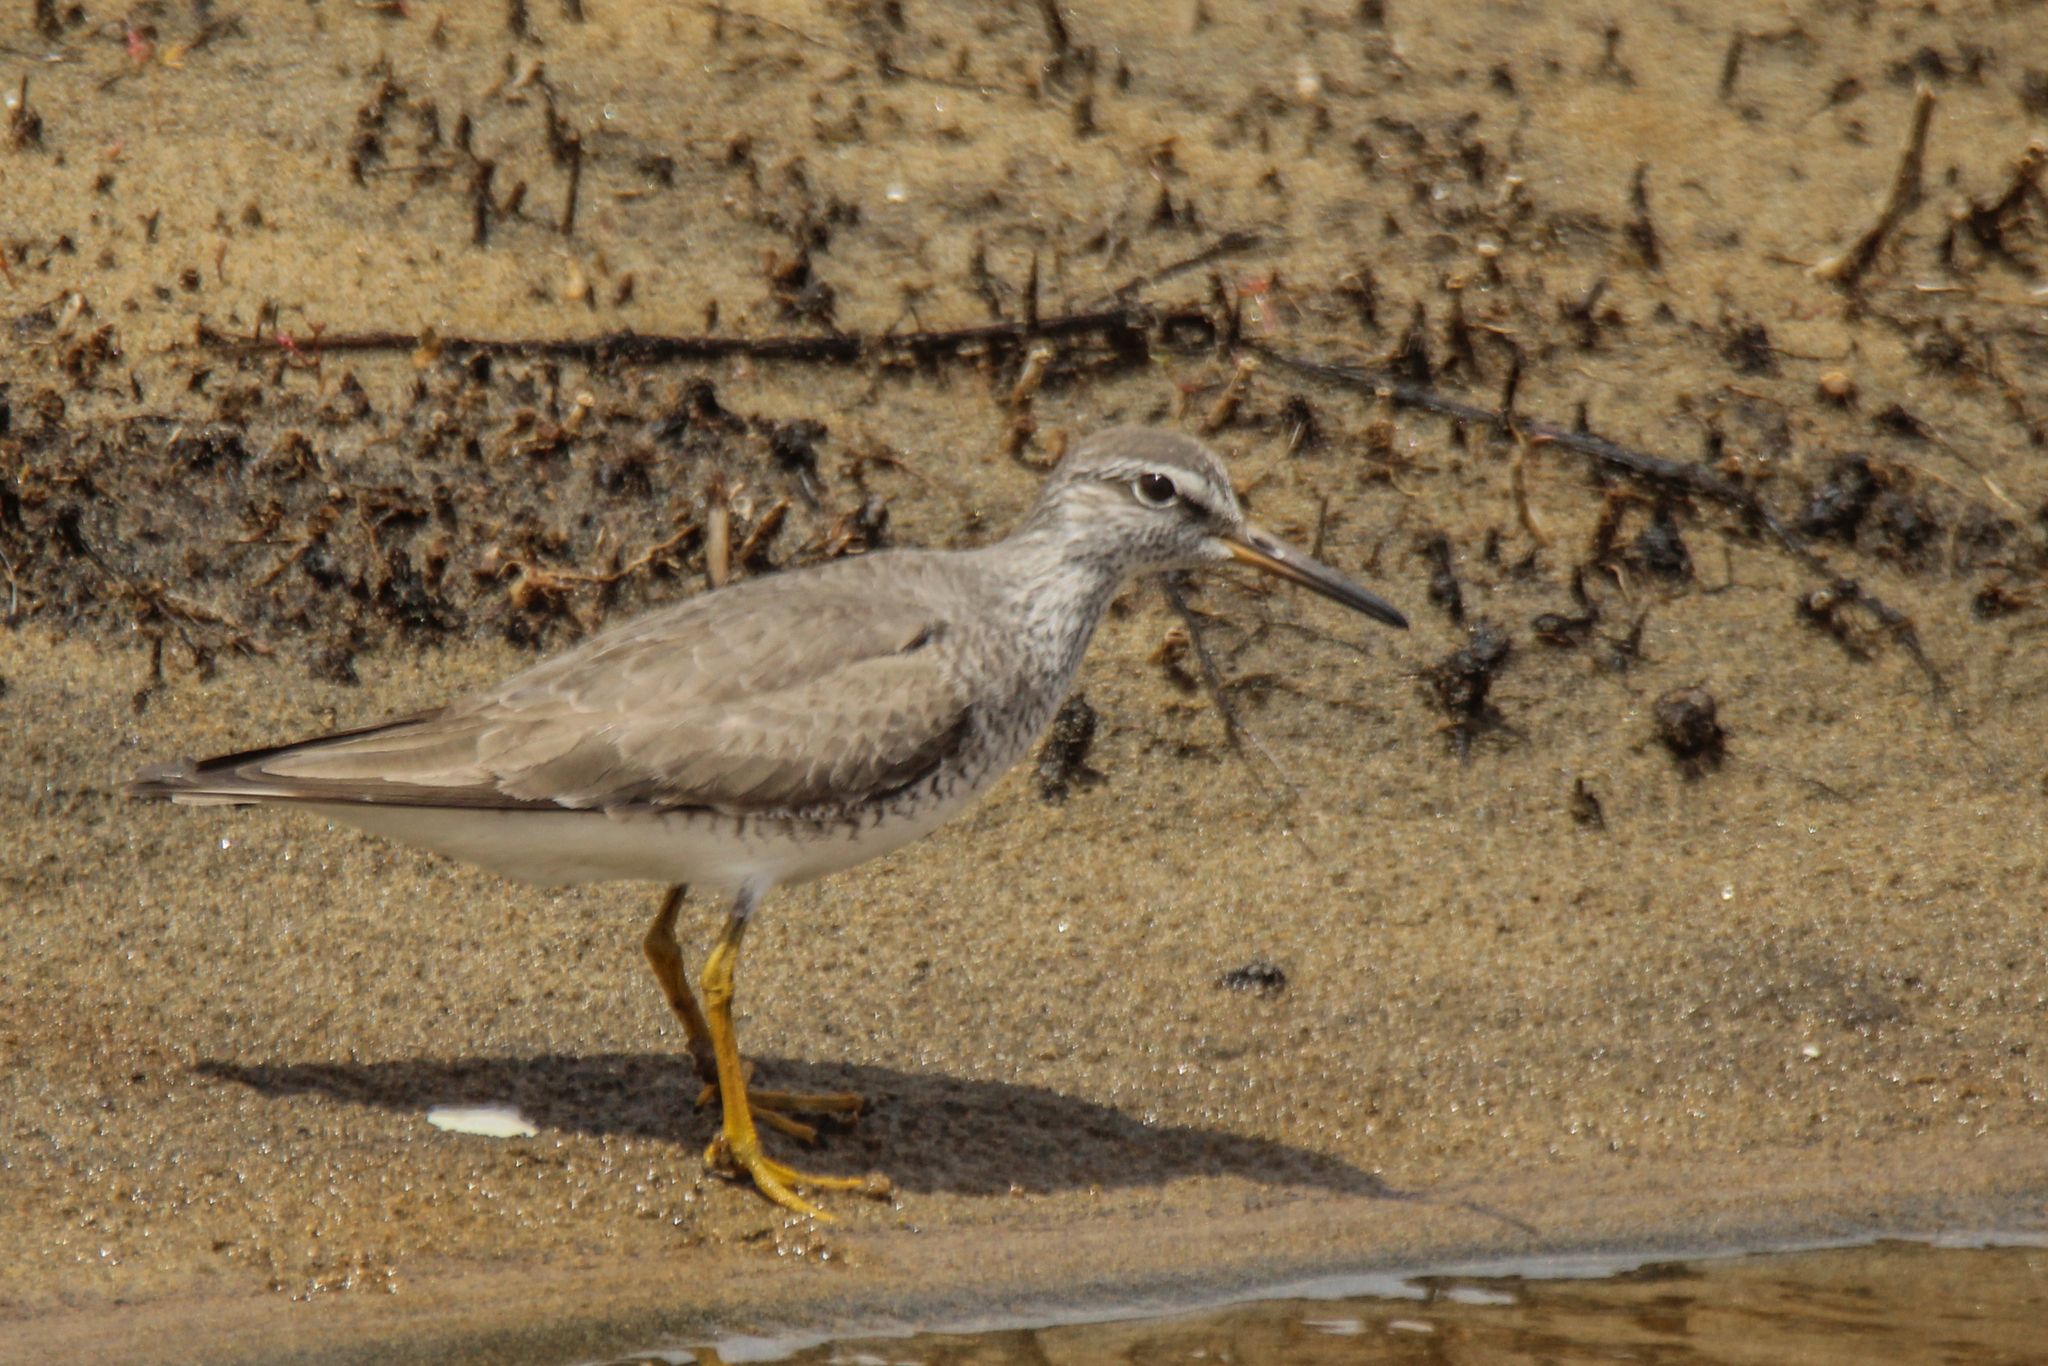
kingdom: Animalia
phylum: Chordata
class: Aves
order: Charadriiformes
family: Scolopacidae
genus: Tringa
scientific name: Tringa brevipes
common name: Grey-tailed tattler
